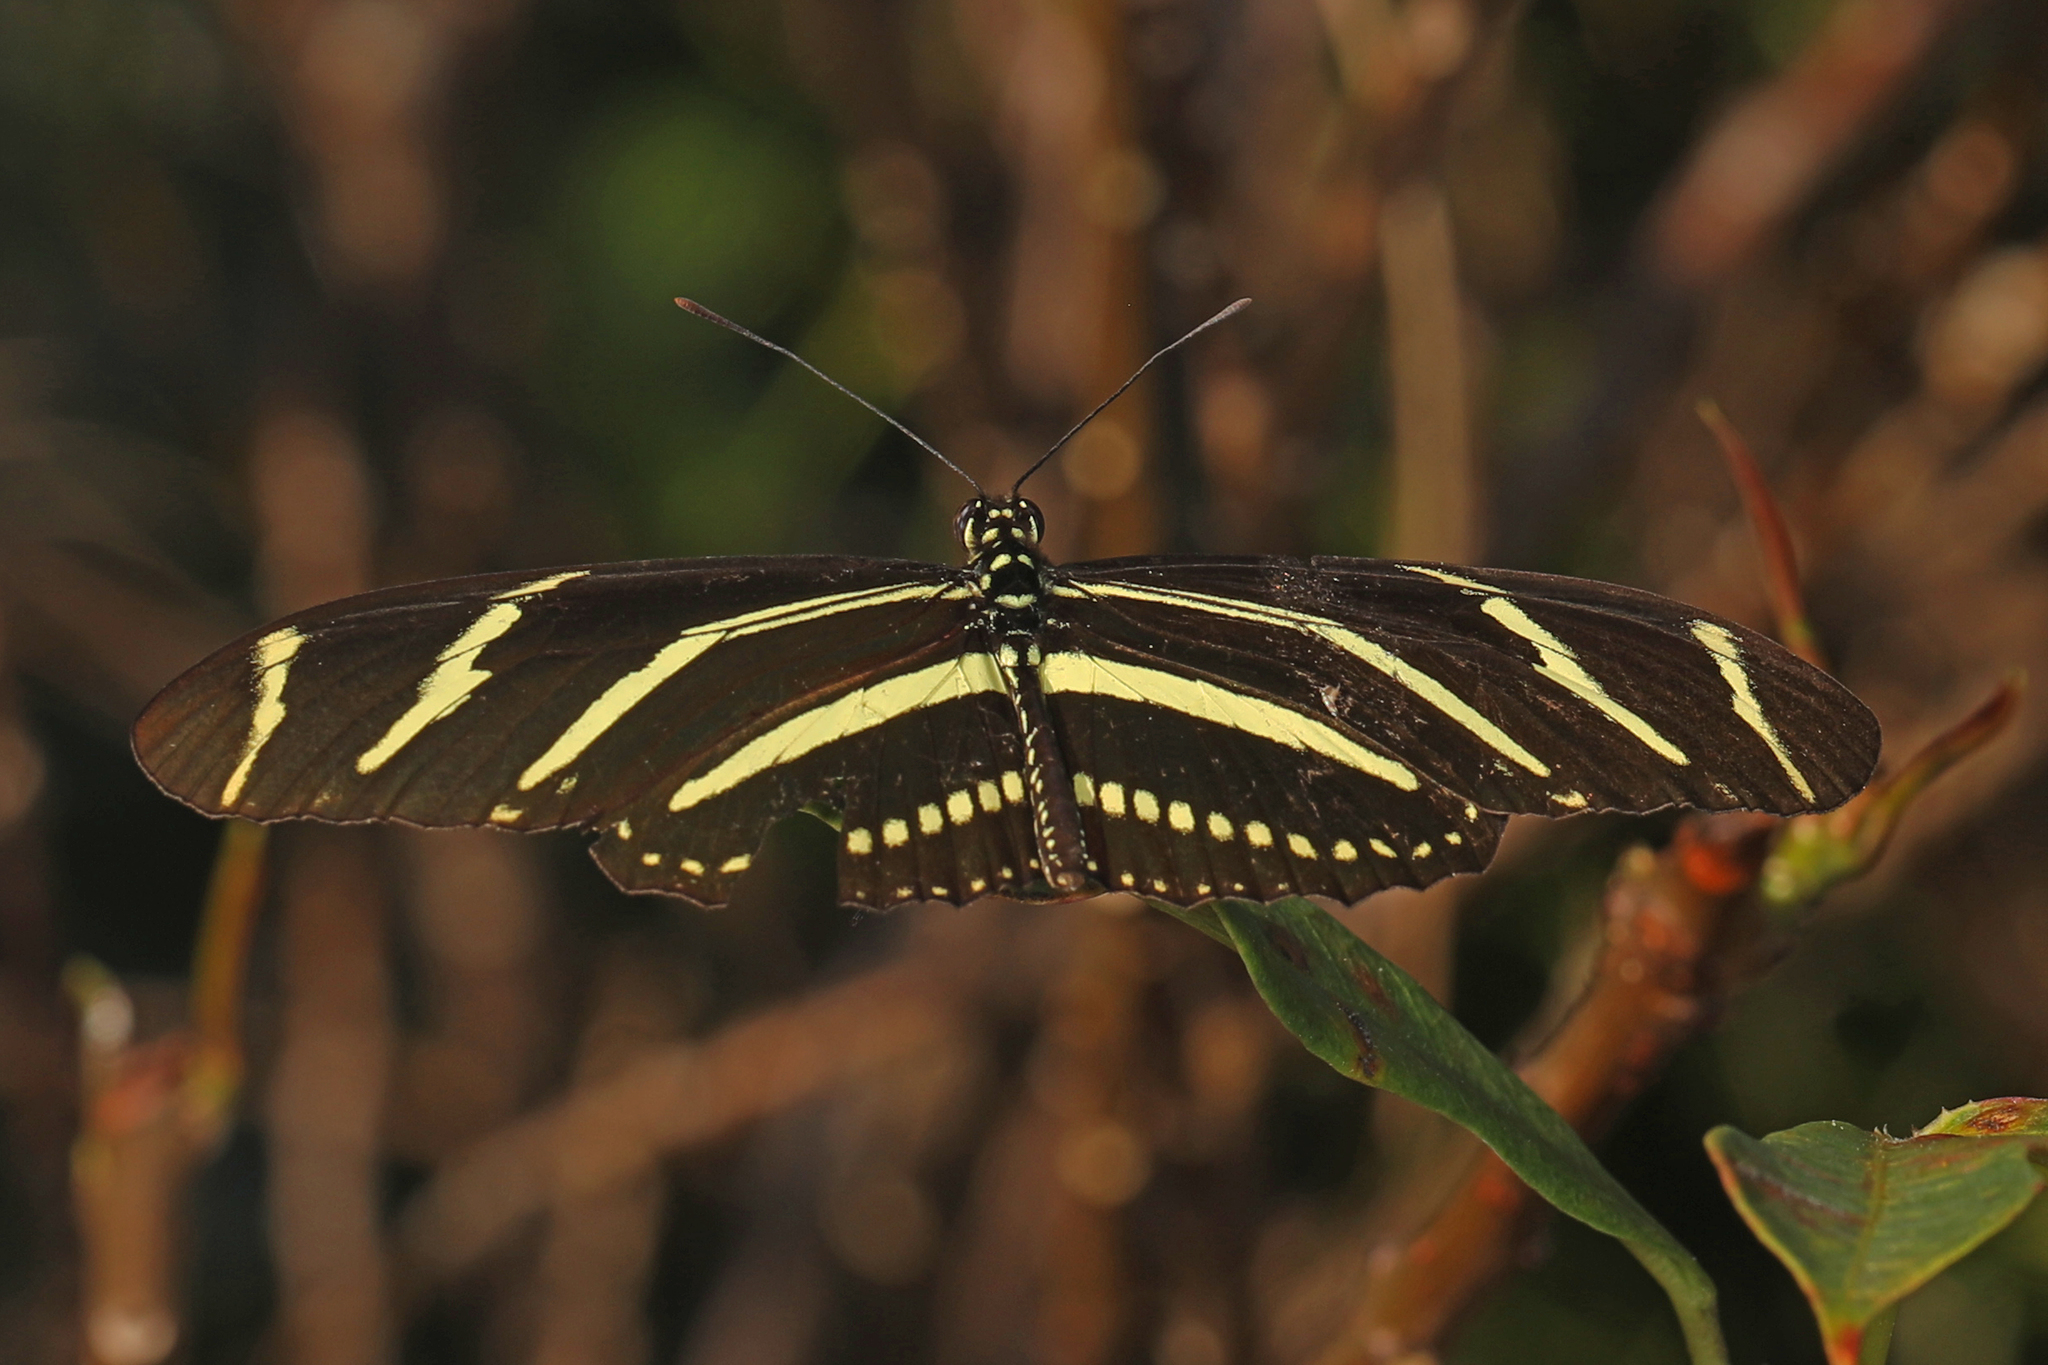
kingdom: Animalia
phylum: Arthropoda
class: Insecta
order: Lepidoptera
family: Nymphalidae
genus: Heliconius
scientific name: Heliconius charithonia
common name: Zebra long wing
